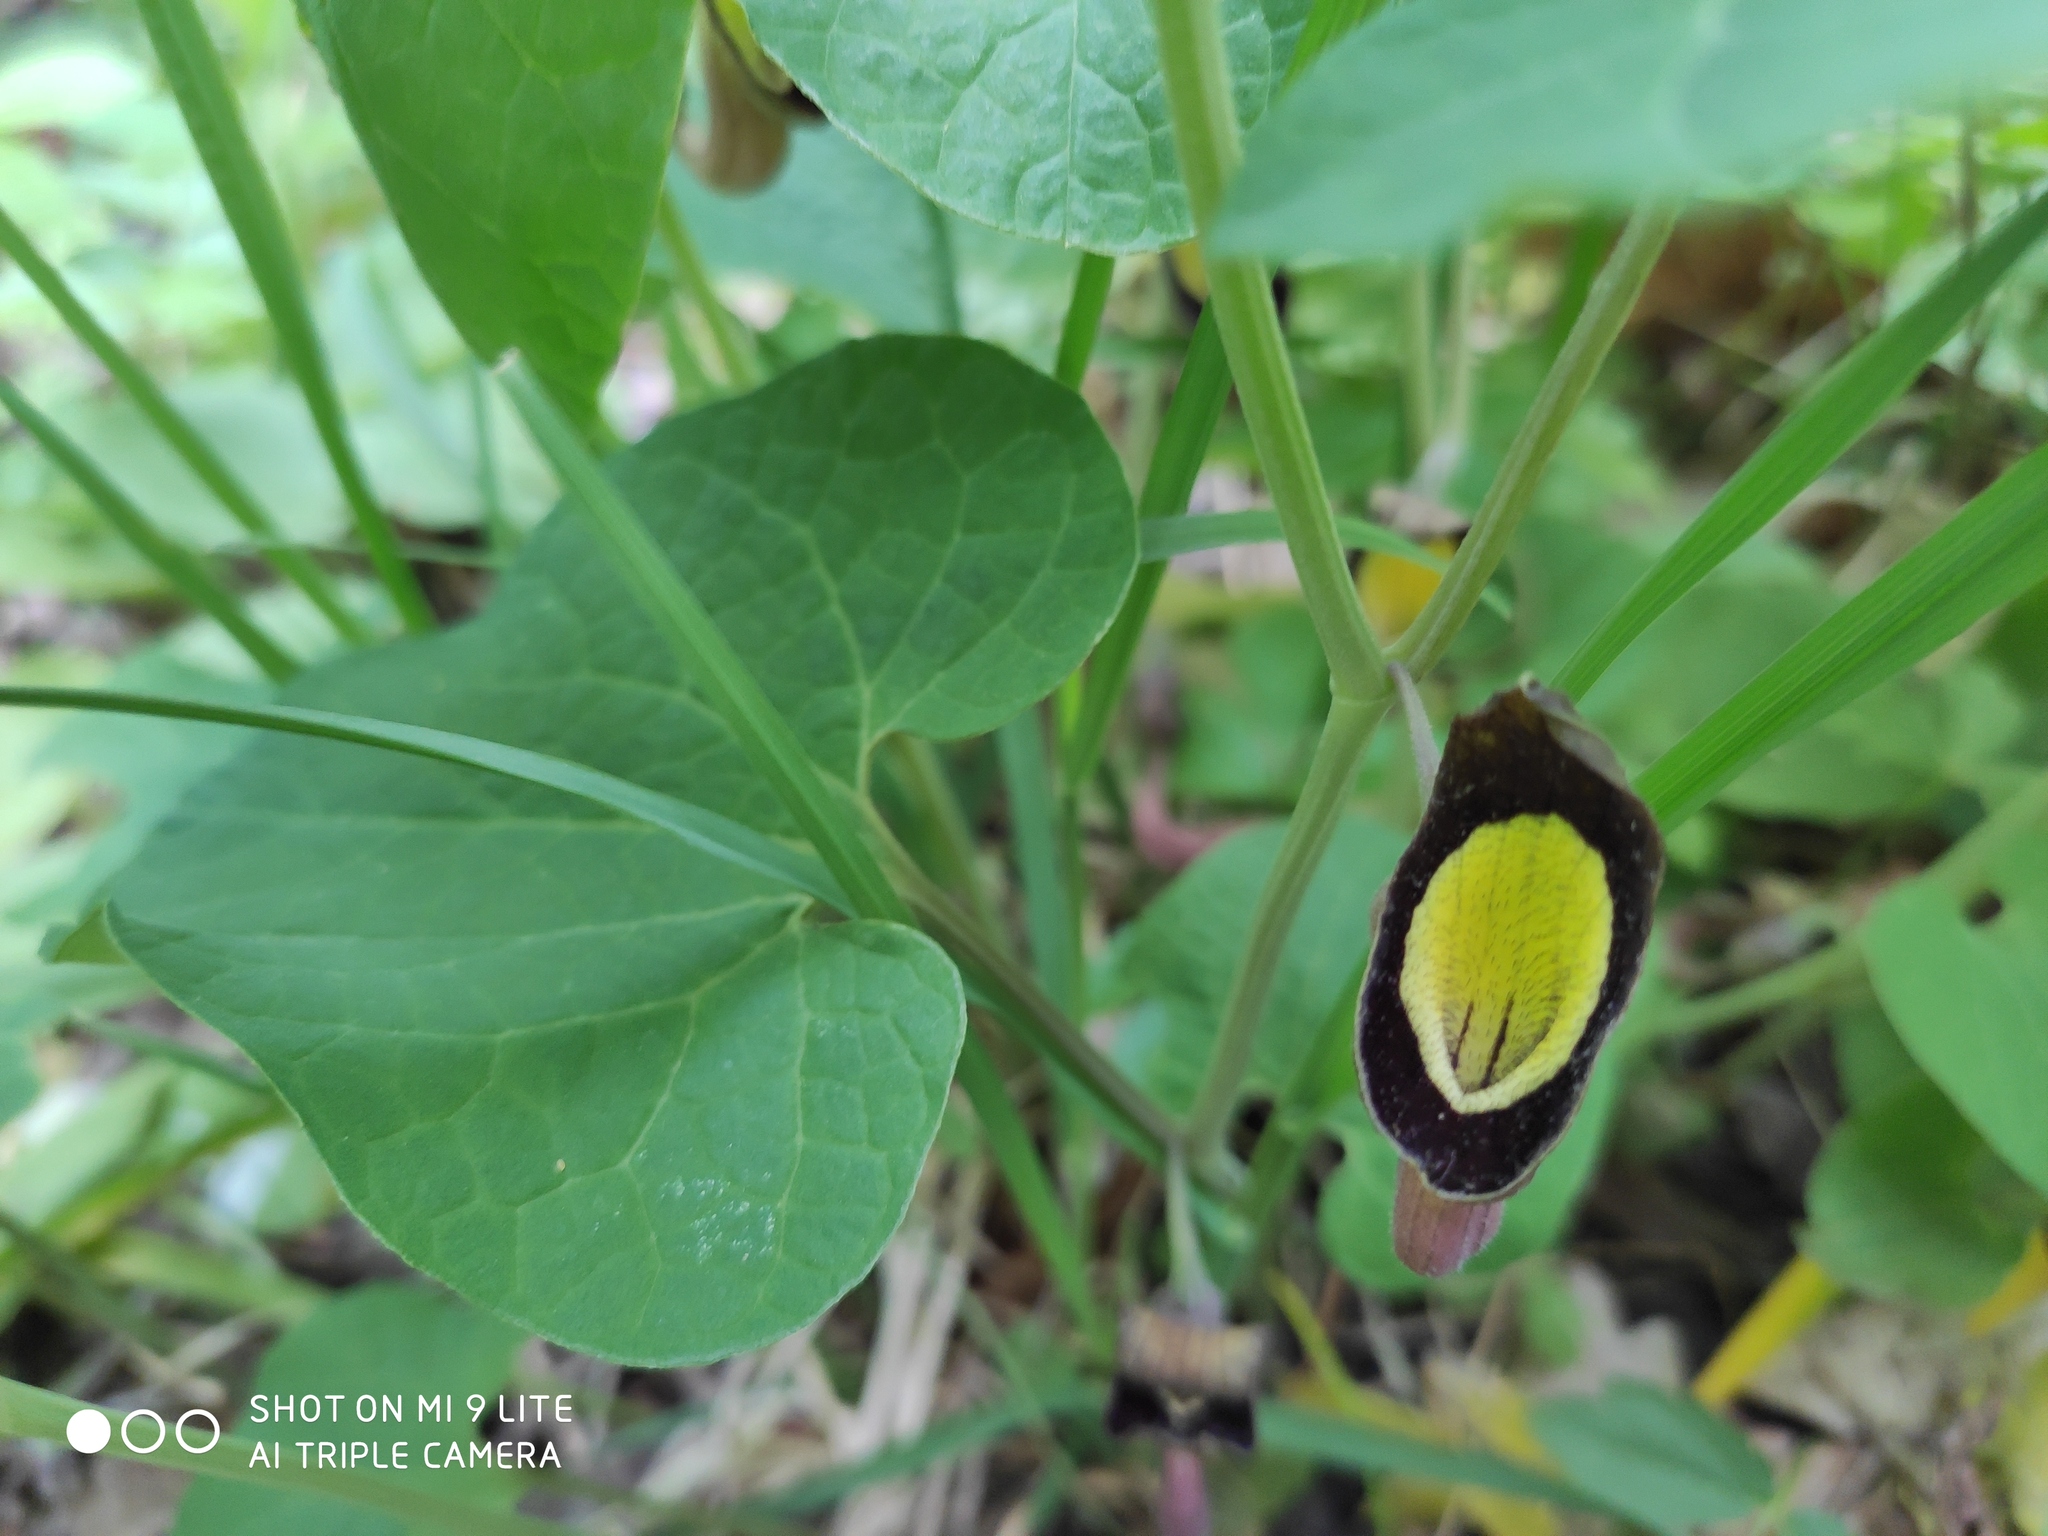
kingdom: Plantae
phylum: Tracheophyta
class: Magnoliopsida
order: Piperales
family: Aristolochiaceae
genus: Aristolochia
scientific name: Aristolochia steupii
